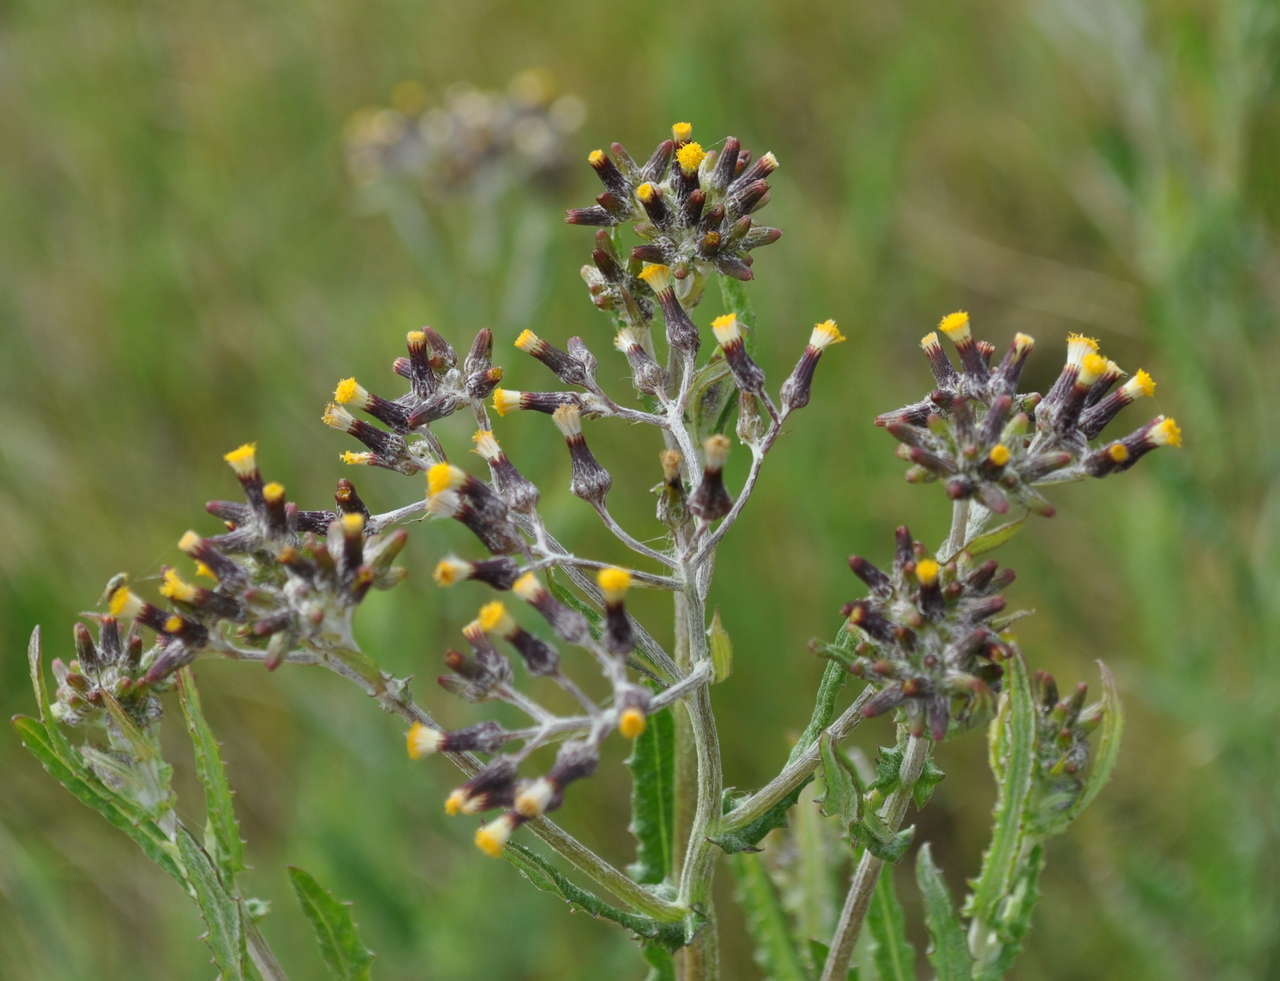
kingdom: Plantae
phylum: Tracheophyta
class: Magnoliopsida
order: Asterales
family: Asteraceae
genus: Senecio
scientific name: Senecio glomeratus
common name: Cutleaf burnweed
